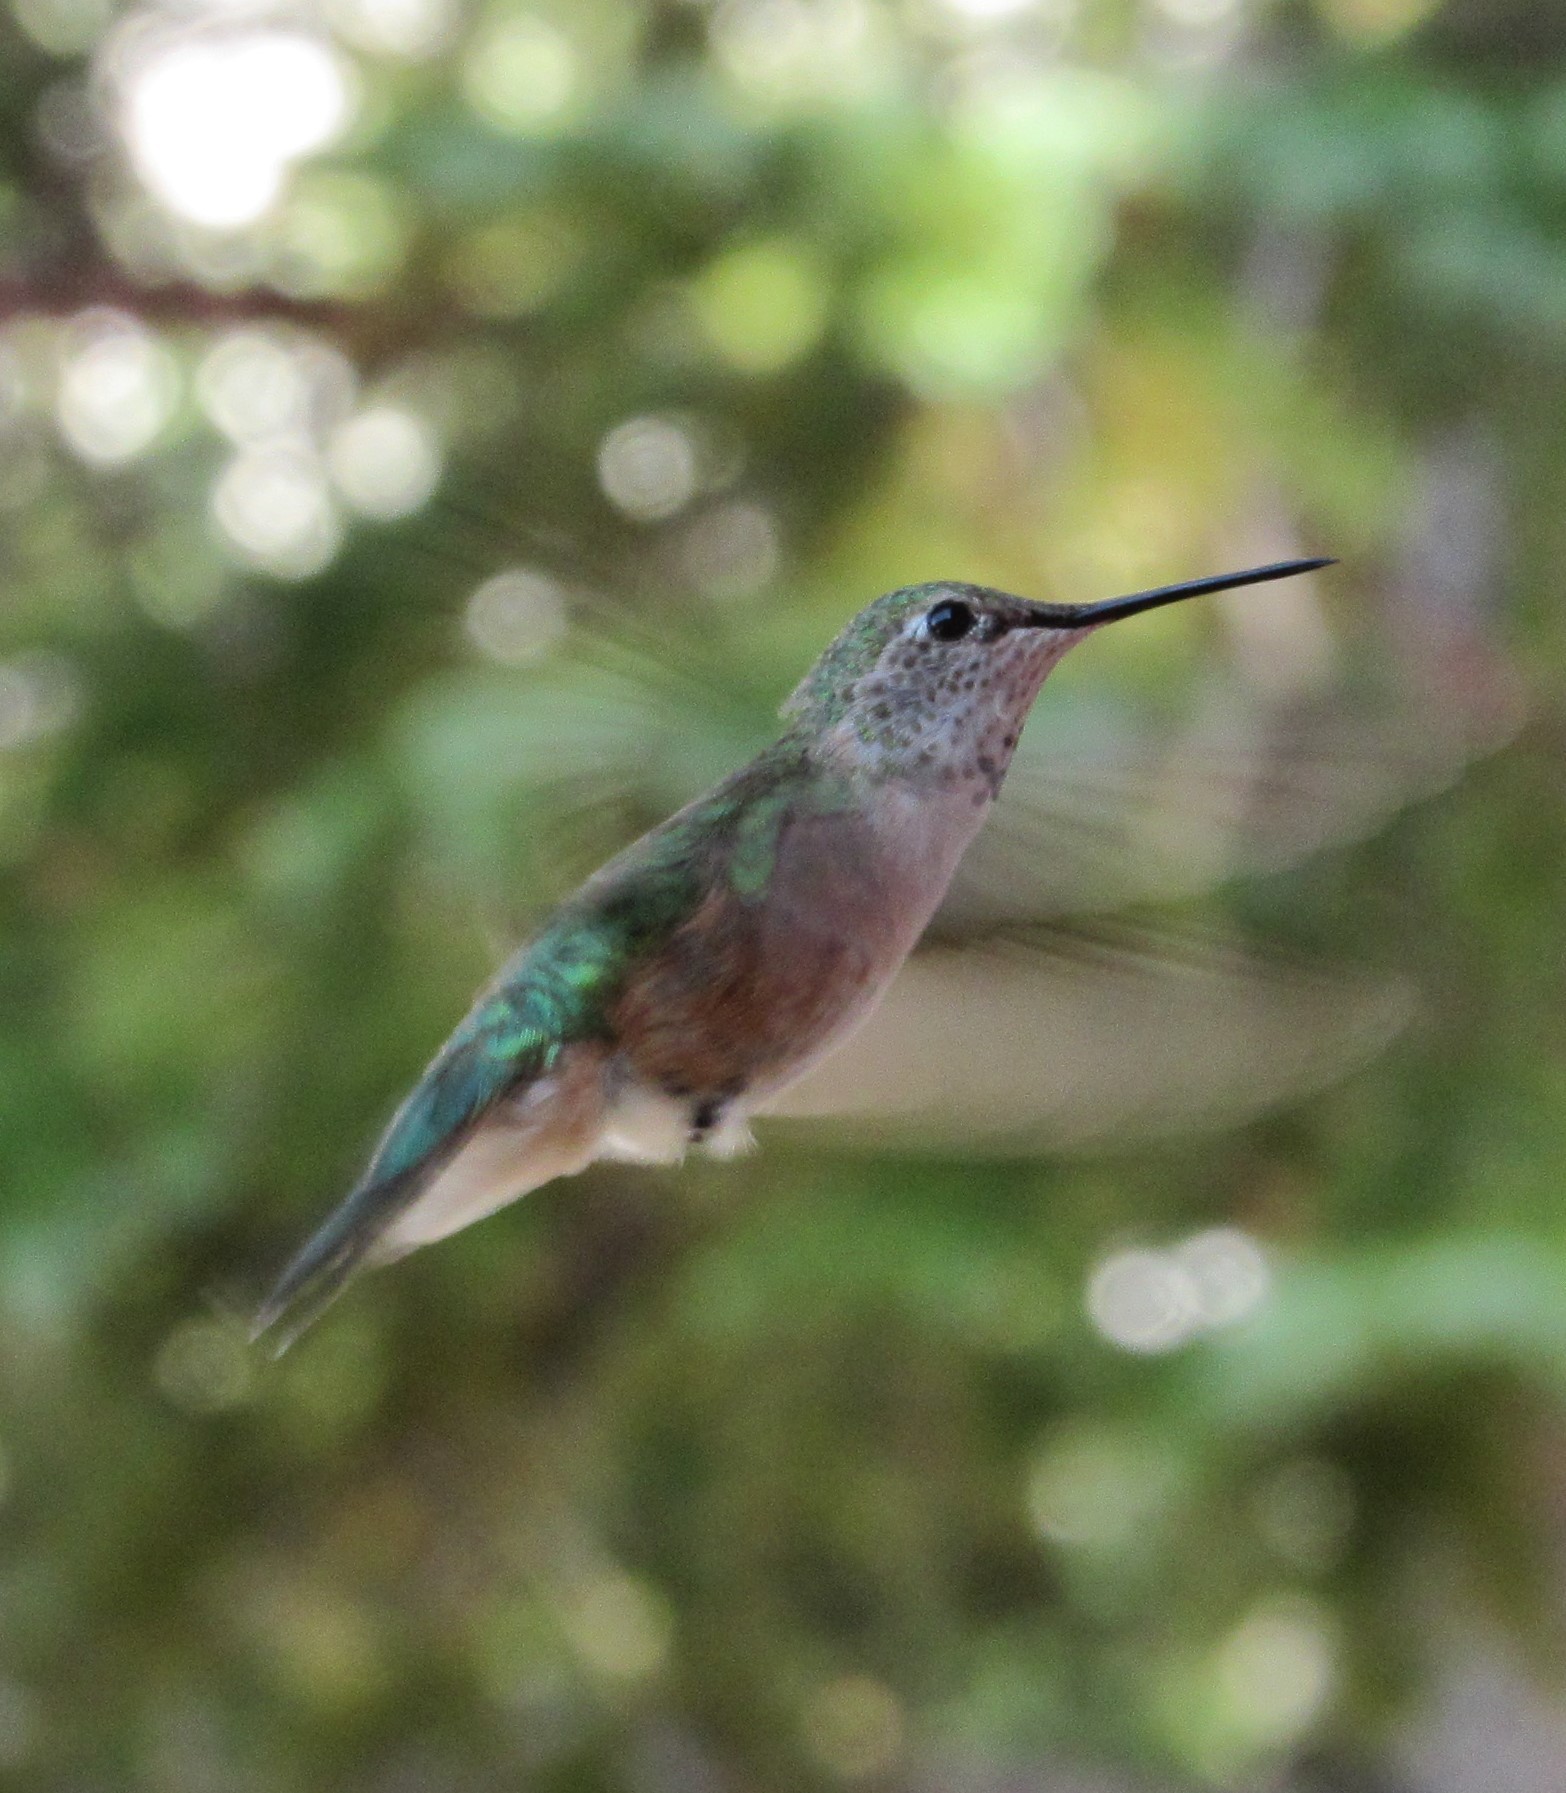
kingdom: Animalia
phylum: Chordata
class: Aves
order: Apodiformes
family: Trochilidae
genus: Selasphorus
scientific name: Selasphorus platycercus
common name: Broad-tailed hummingbird
